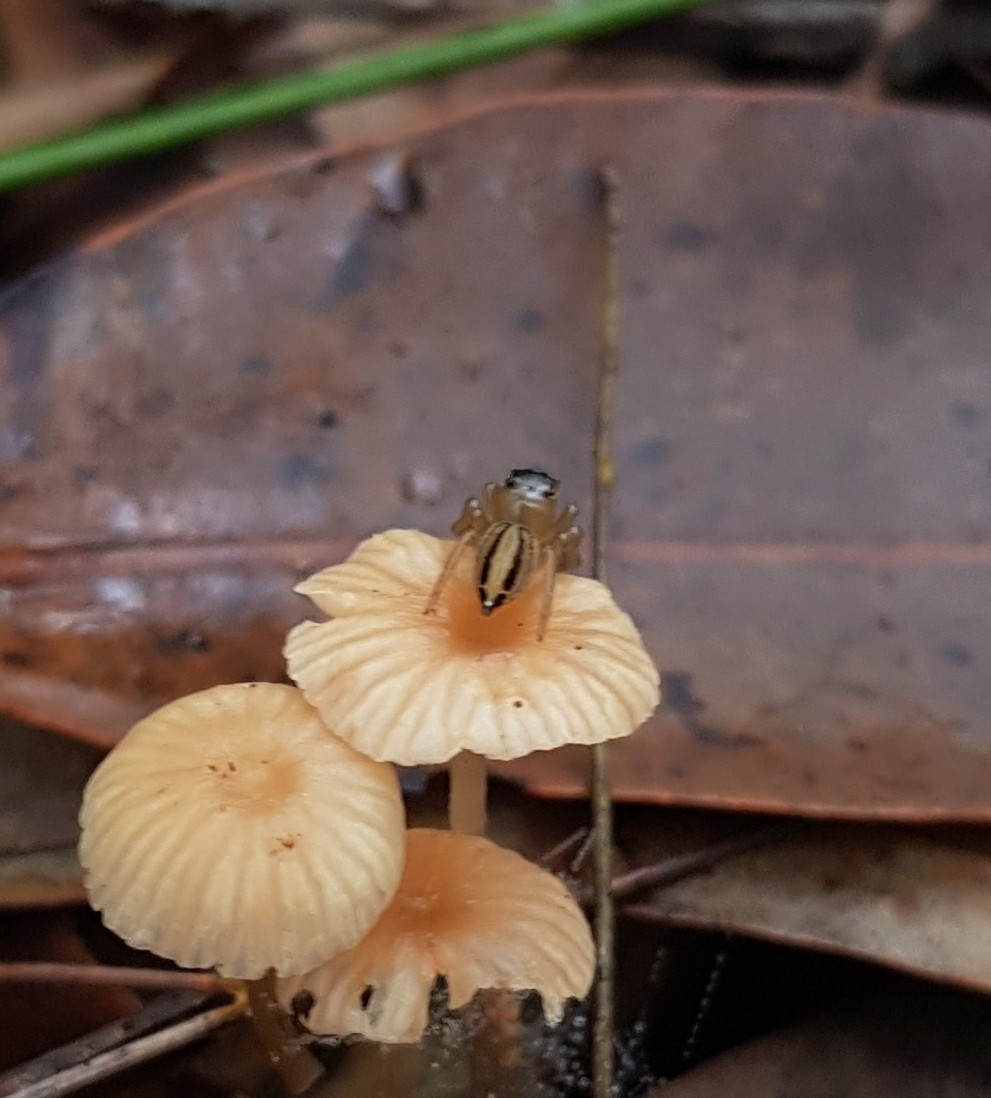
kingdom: Animalia
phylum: Arthropoda
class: Arachnida
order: Araneae
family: Salticidae
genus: Maratus
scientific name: Maratus scutulatus
